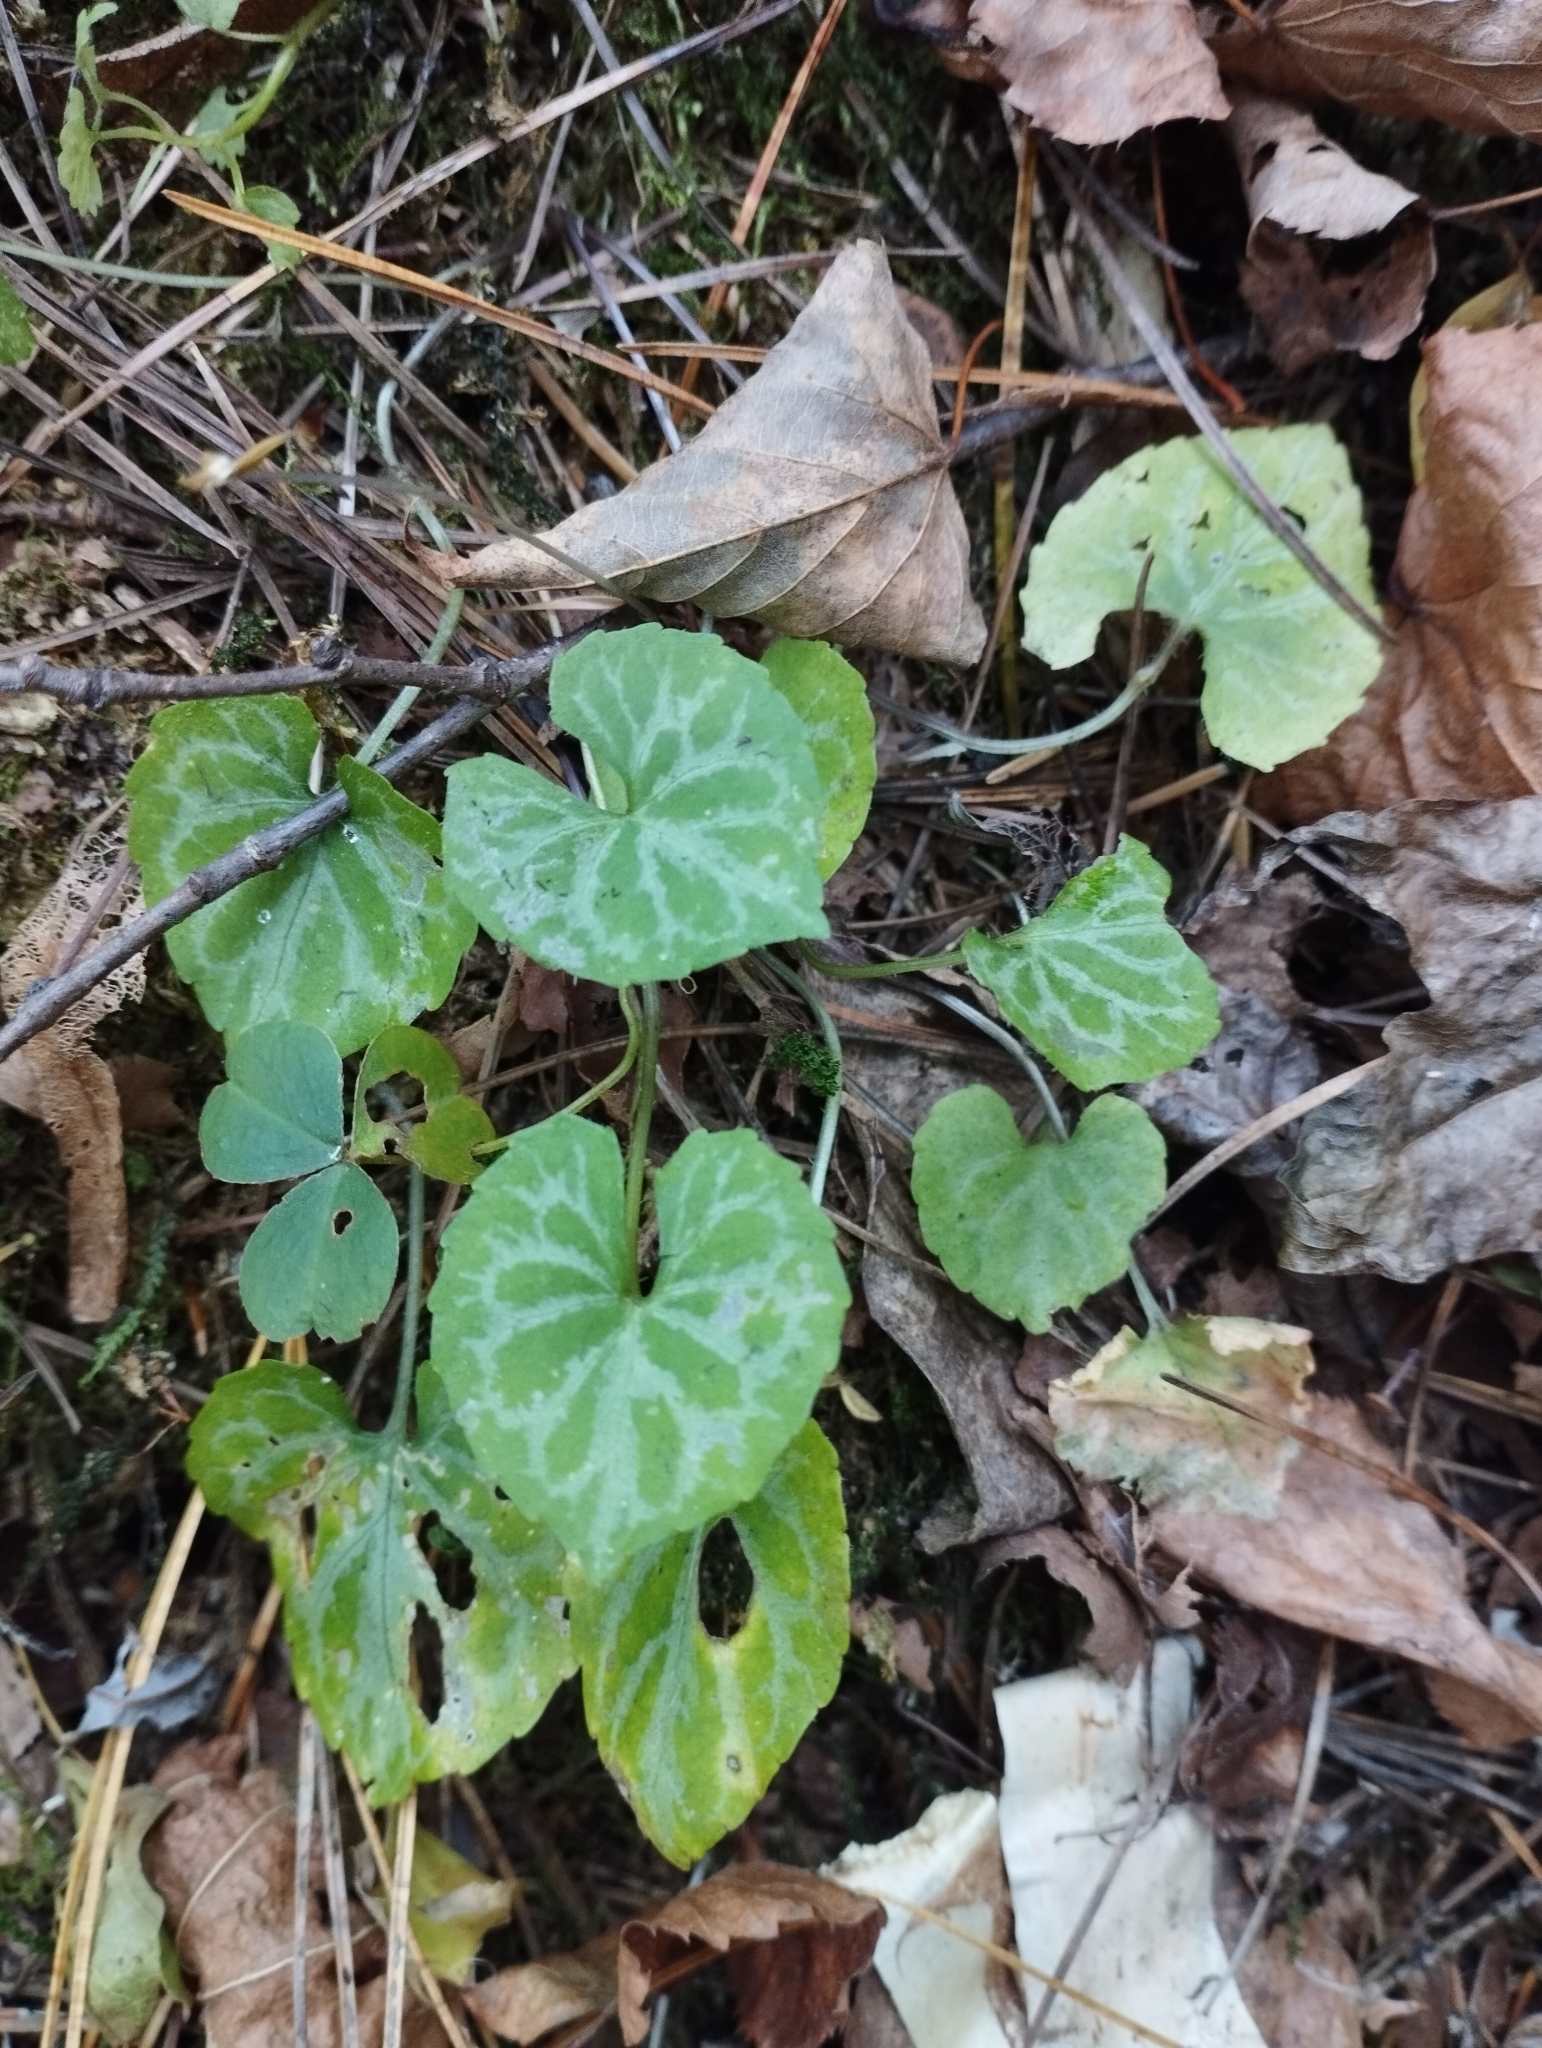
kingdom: Plantae
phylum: Tracheophyta
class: Magnoliopsida
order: Malpighiales
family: Violaceae
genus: Viola
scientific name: Viola selkirkii
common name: Selkirk's violet
